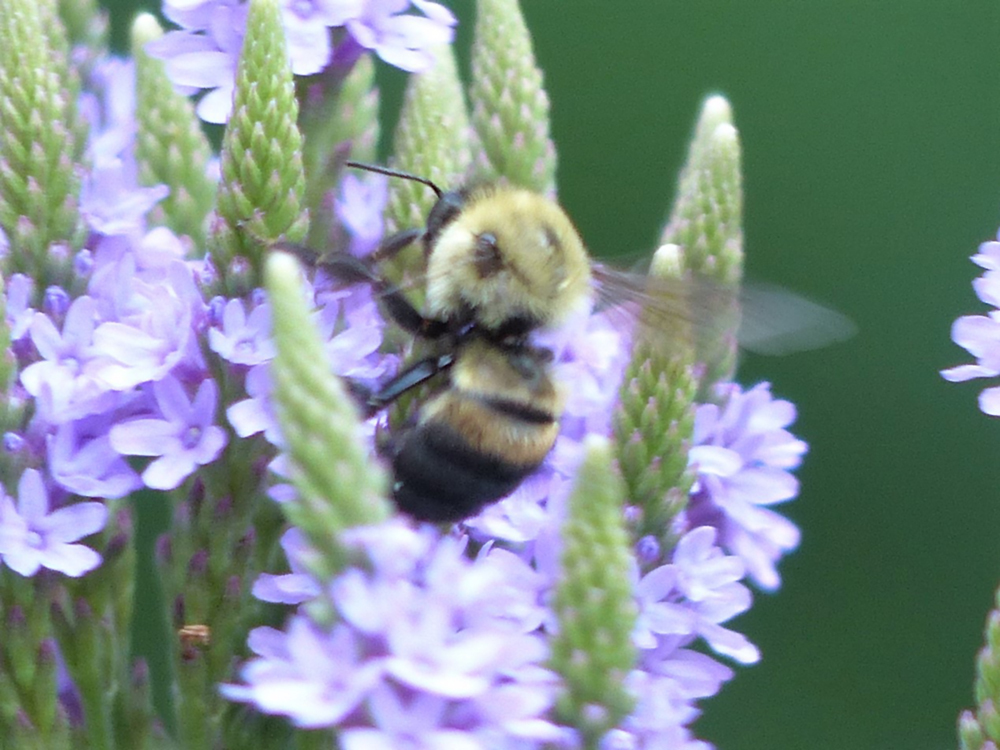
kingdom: Animalia
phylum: Arthropoda
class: Insecta
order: Hymenoptera
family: Apidae
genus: Bombus
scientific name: Bombus griseocollis
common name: Brown-belted bumble bee
